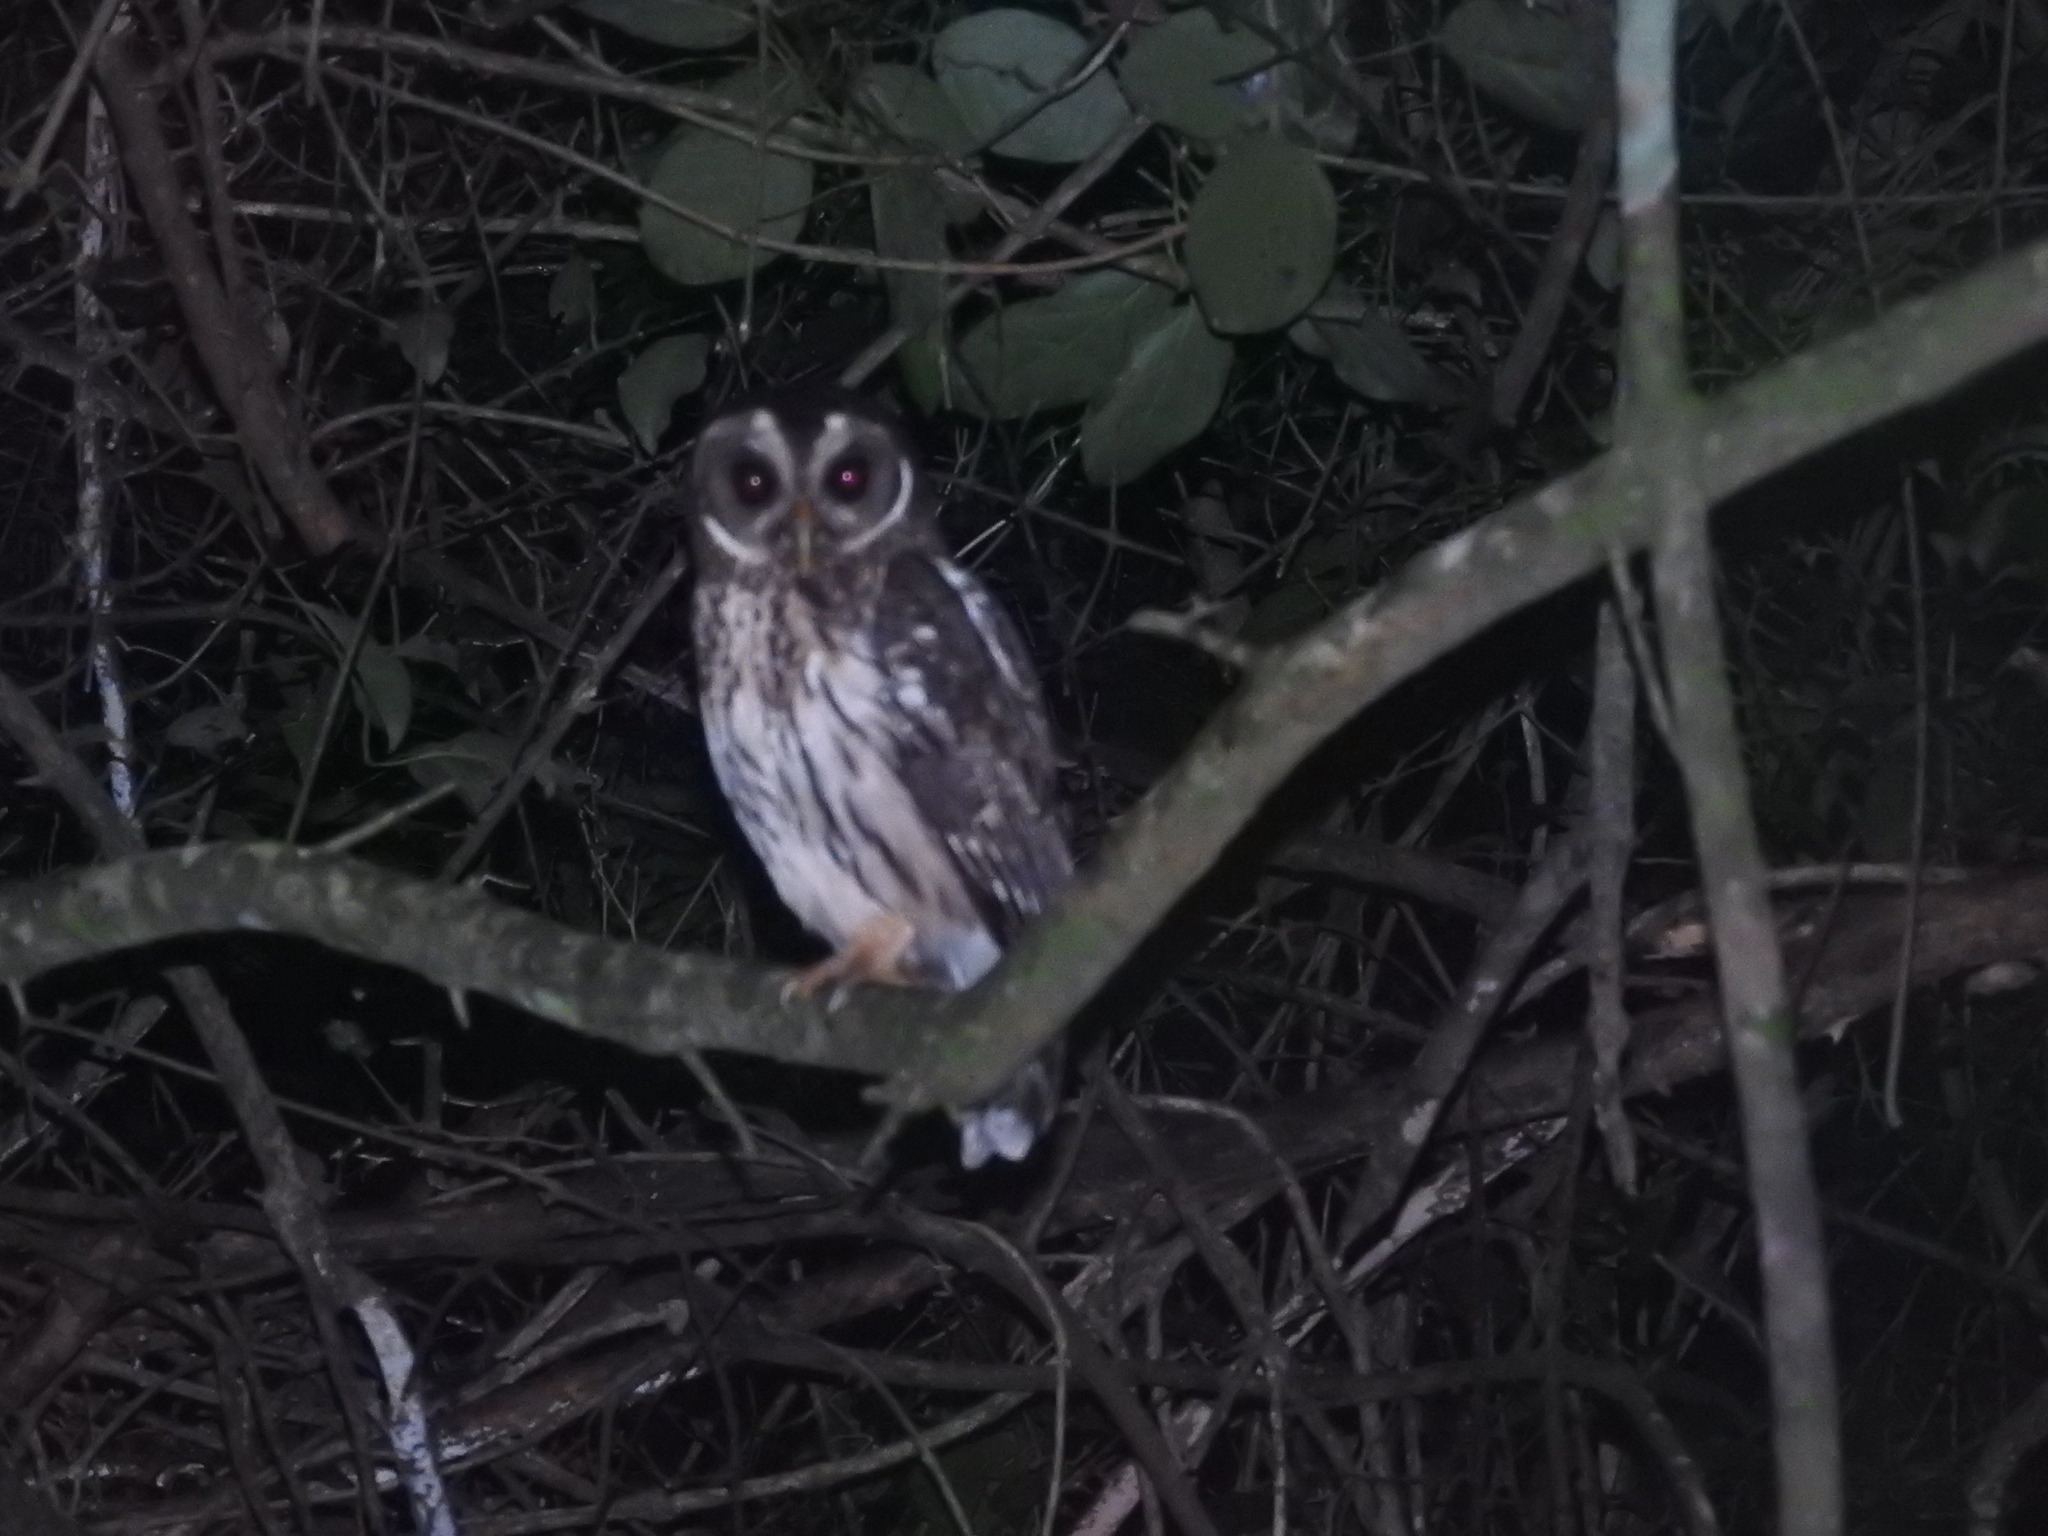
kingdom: Animalia
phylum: Chordata
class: Aves
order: Strigiformes
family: Strigidae
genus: Strix
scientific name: Strix virgata
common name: Mottled owl
